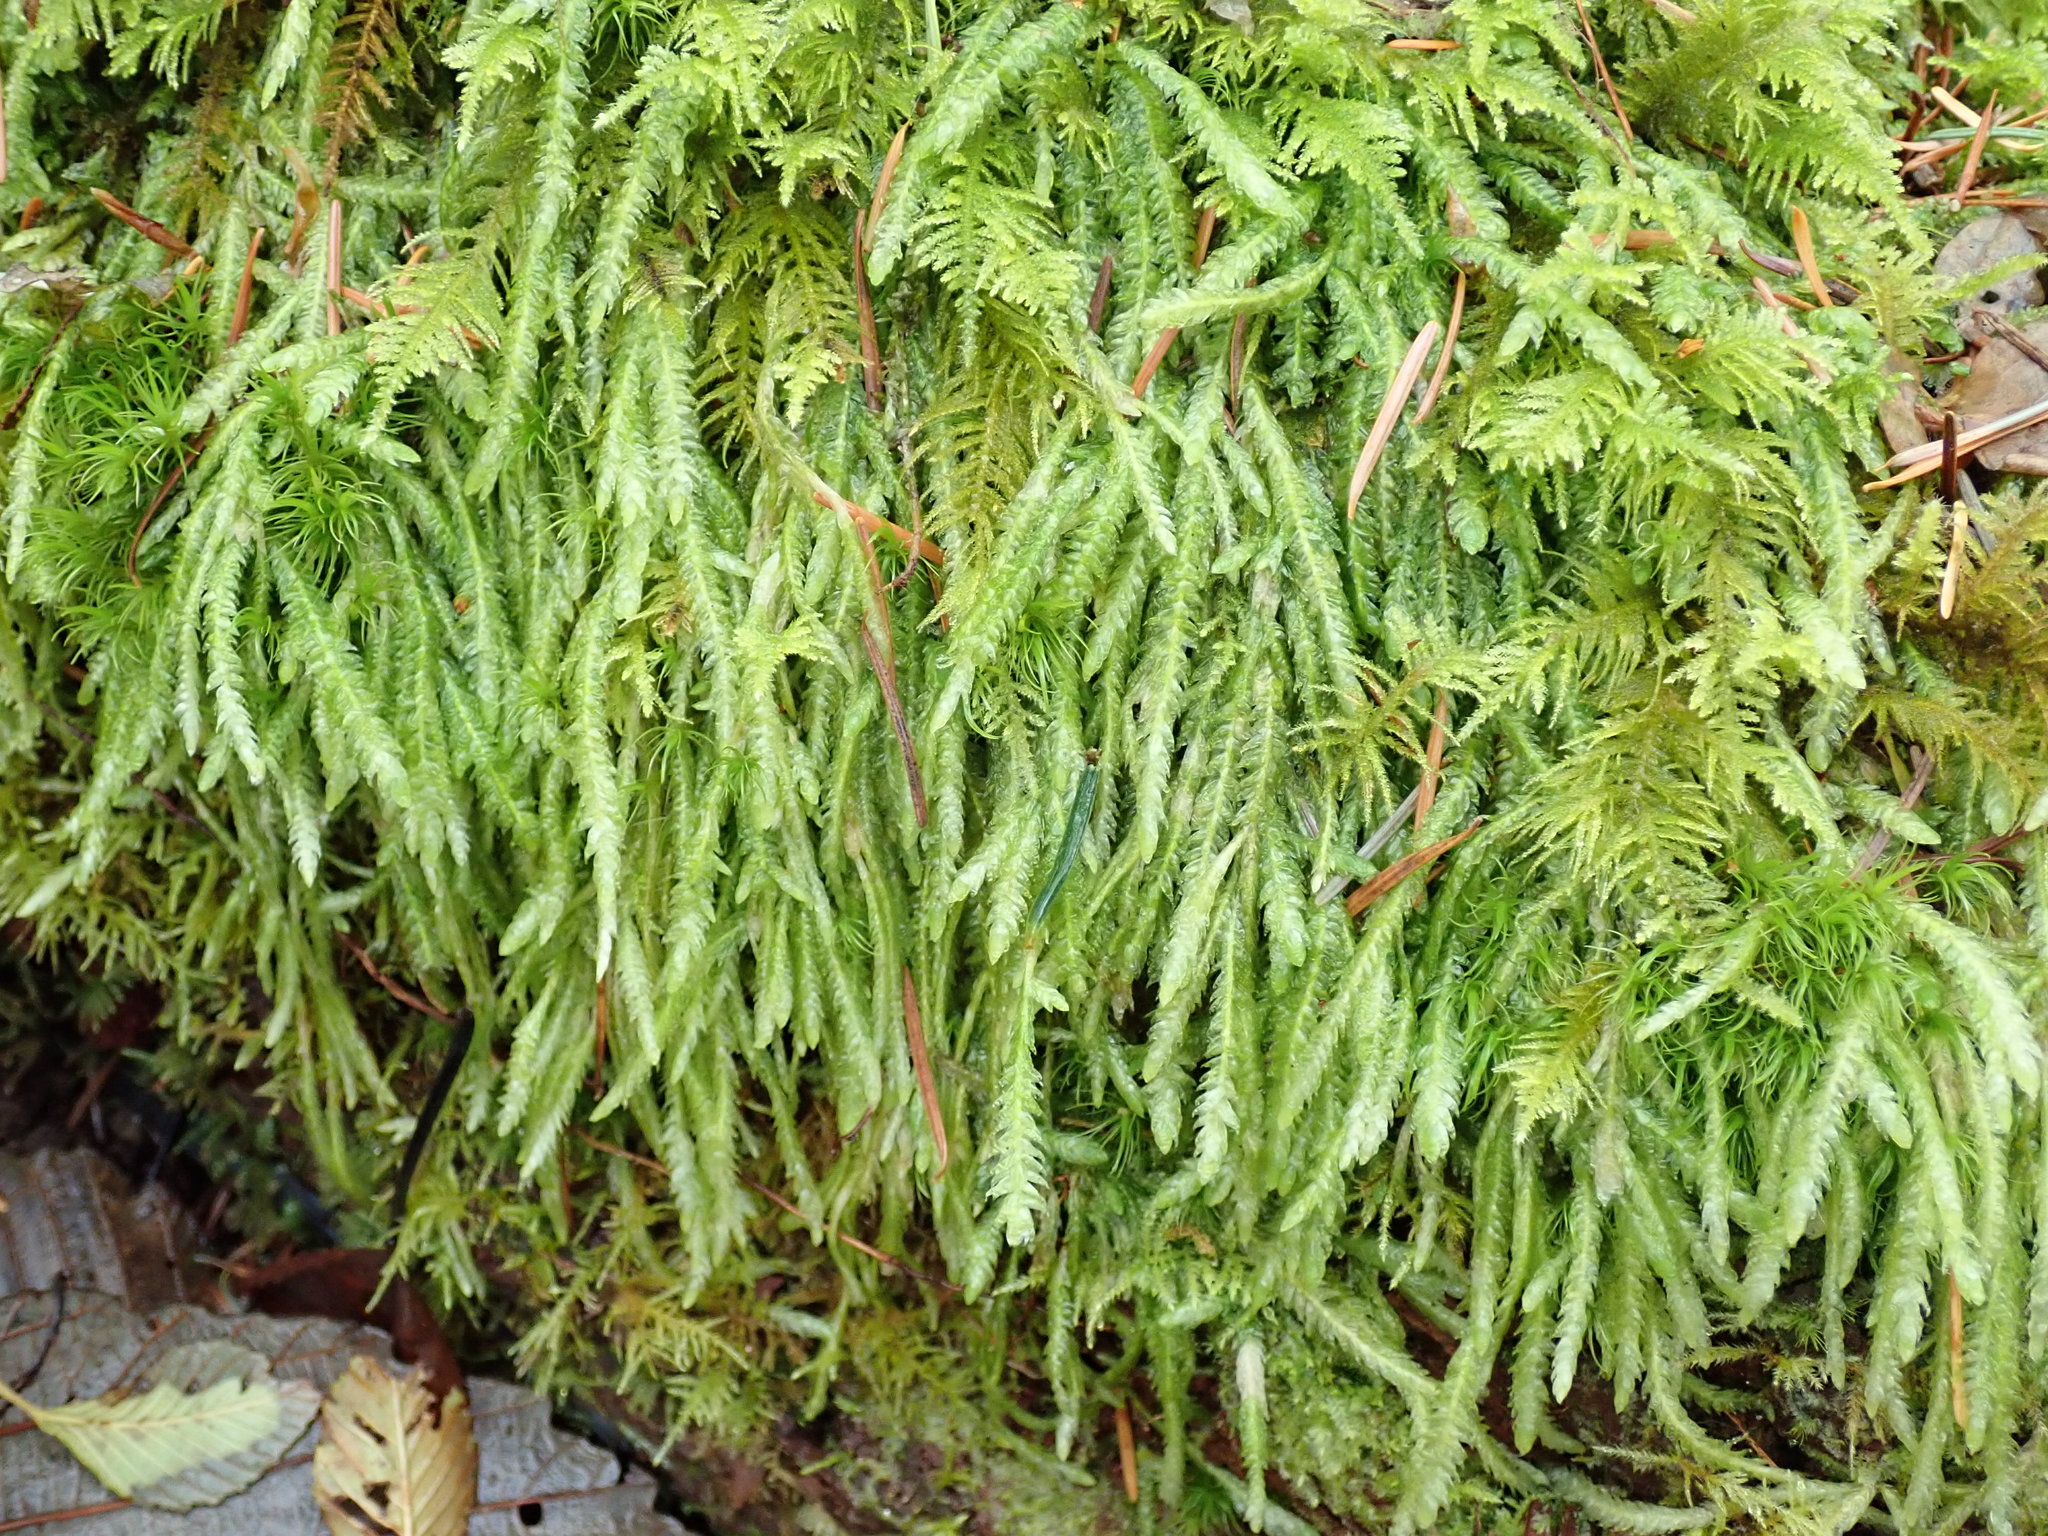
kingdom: Plantae
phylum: Bryophyta
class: Bryopsida
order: Hypnales
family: Plagiotheciaceae
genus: Plagiothecium
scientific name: Plagiothecium undulatum
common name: Waved silk-moss
